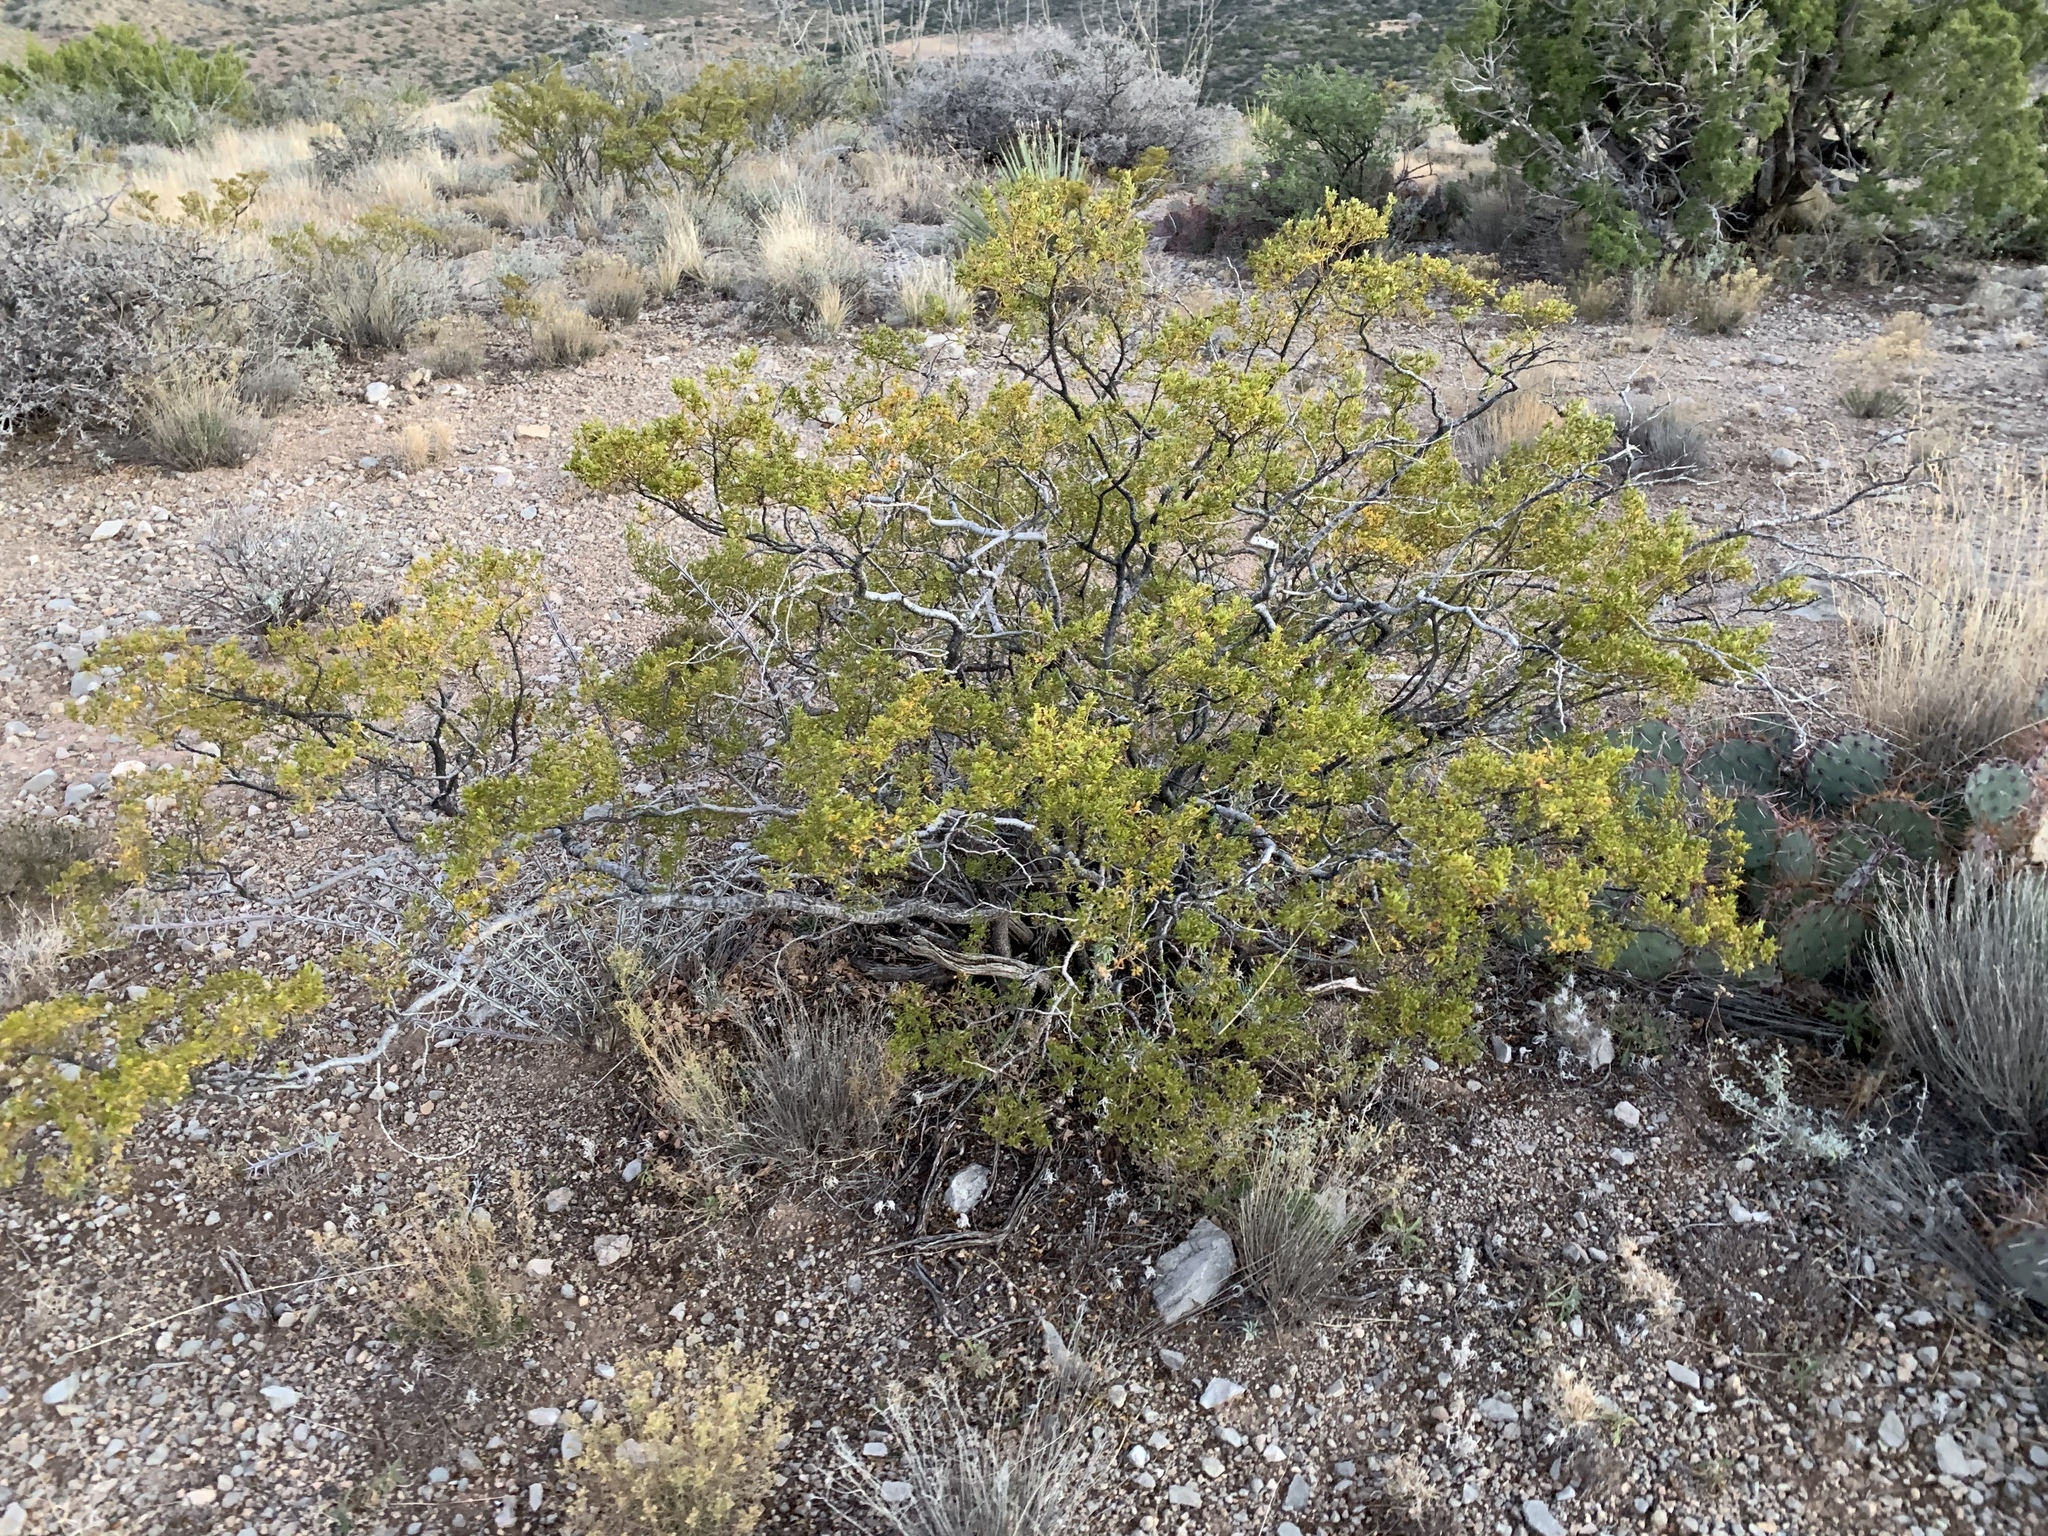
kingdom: Plantae
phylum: Tracheophyta
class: Magnoliopsida
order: Zygophyllales
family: Zygophyllaceae
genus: Larrea
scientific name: Larrea tridentata
